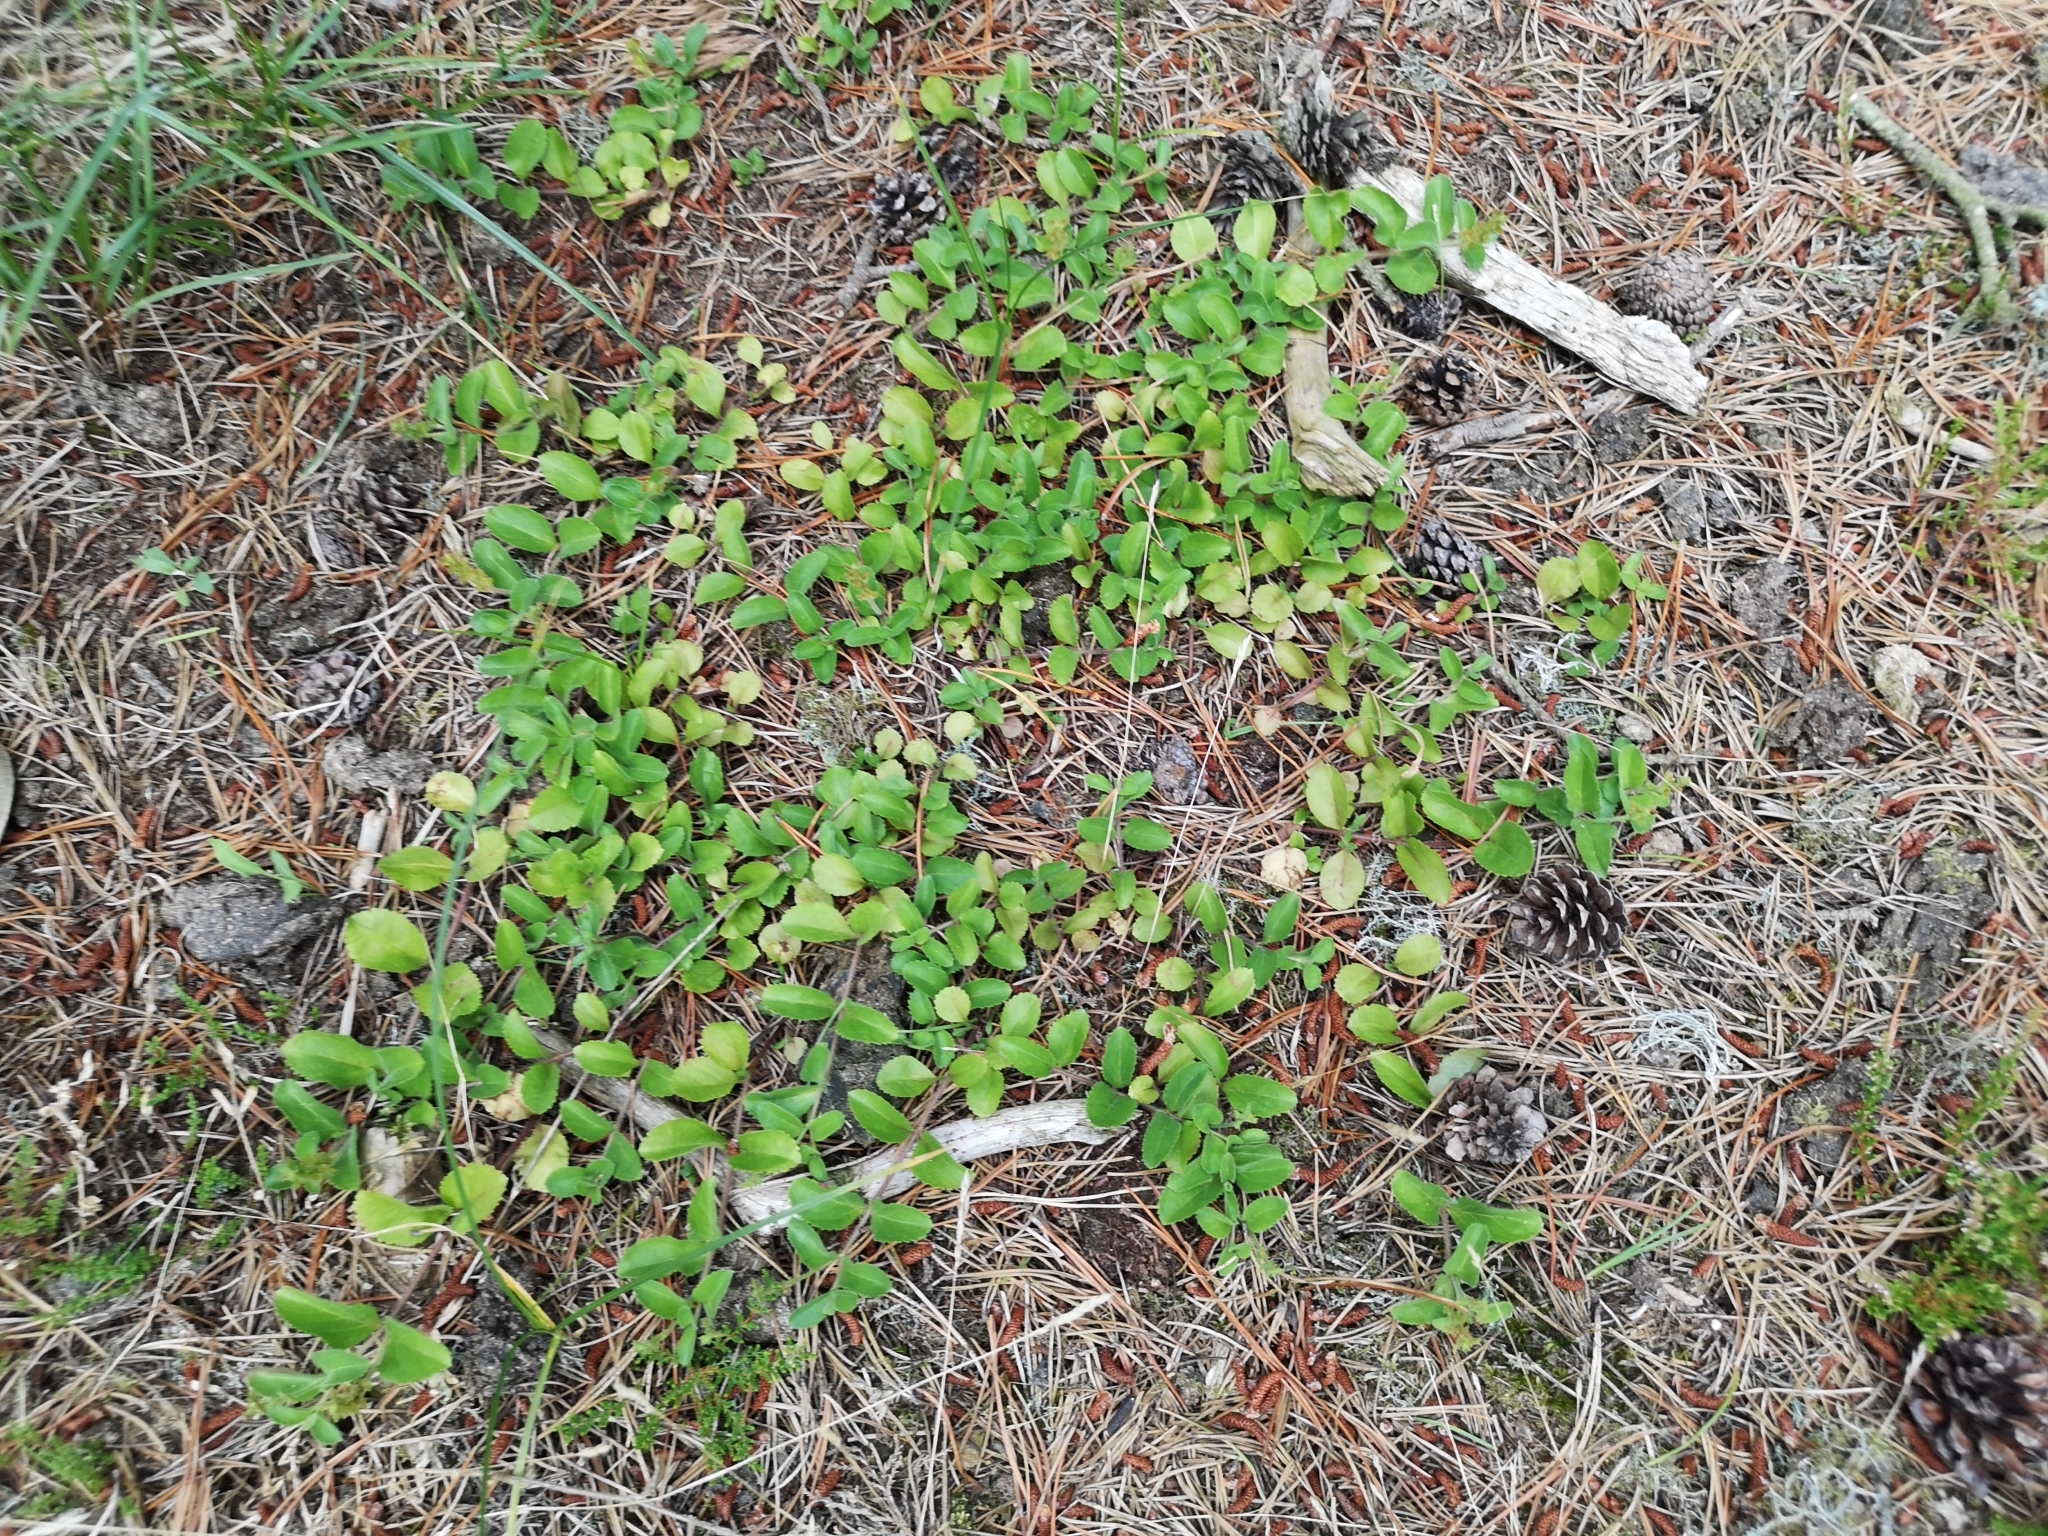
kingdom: Plantae
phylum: Tracheophyta
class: Magnoliopsida
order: Lamiales
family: Plantaginaceae
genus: Veronica
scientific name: Veronica officinalis
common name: Common speedwell
